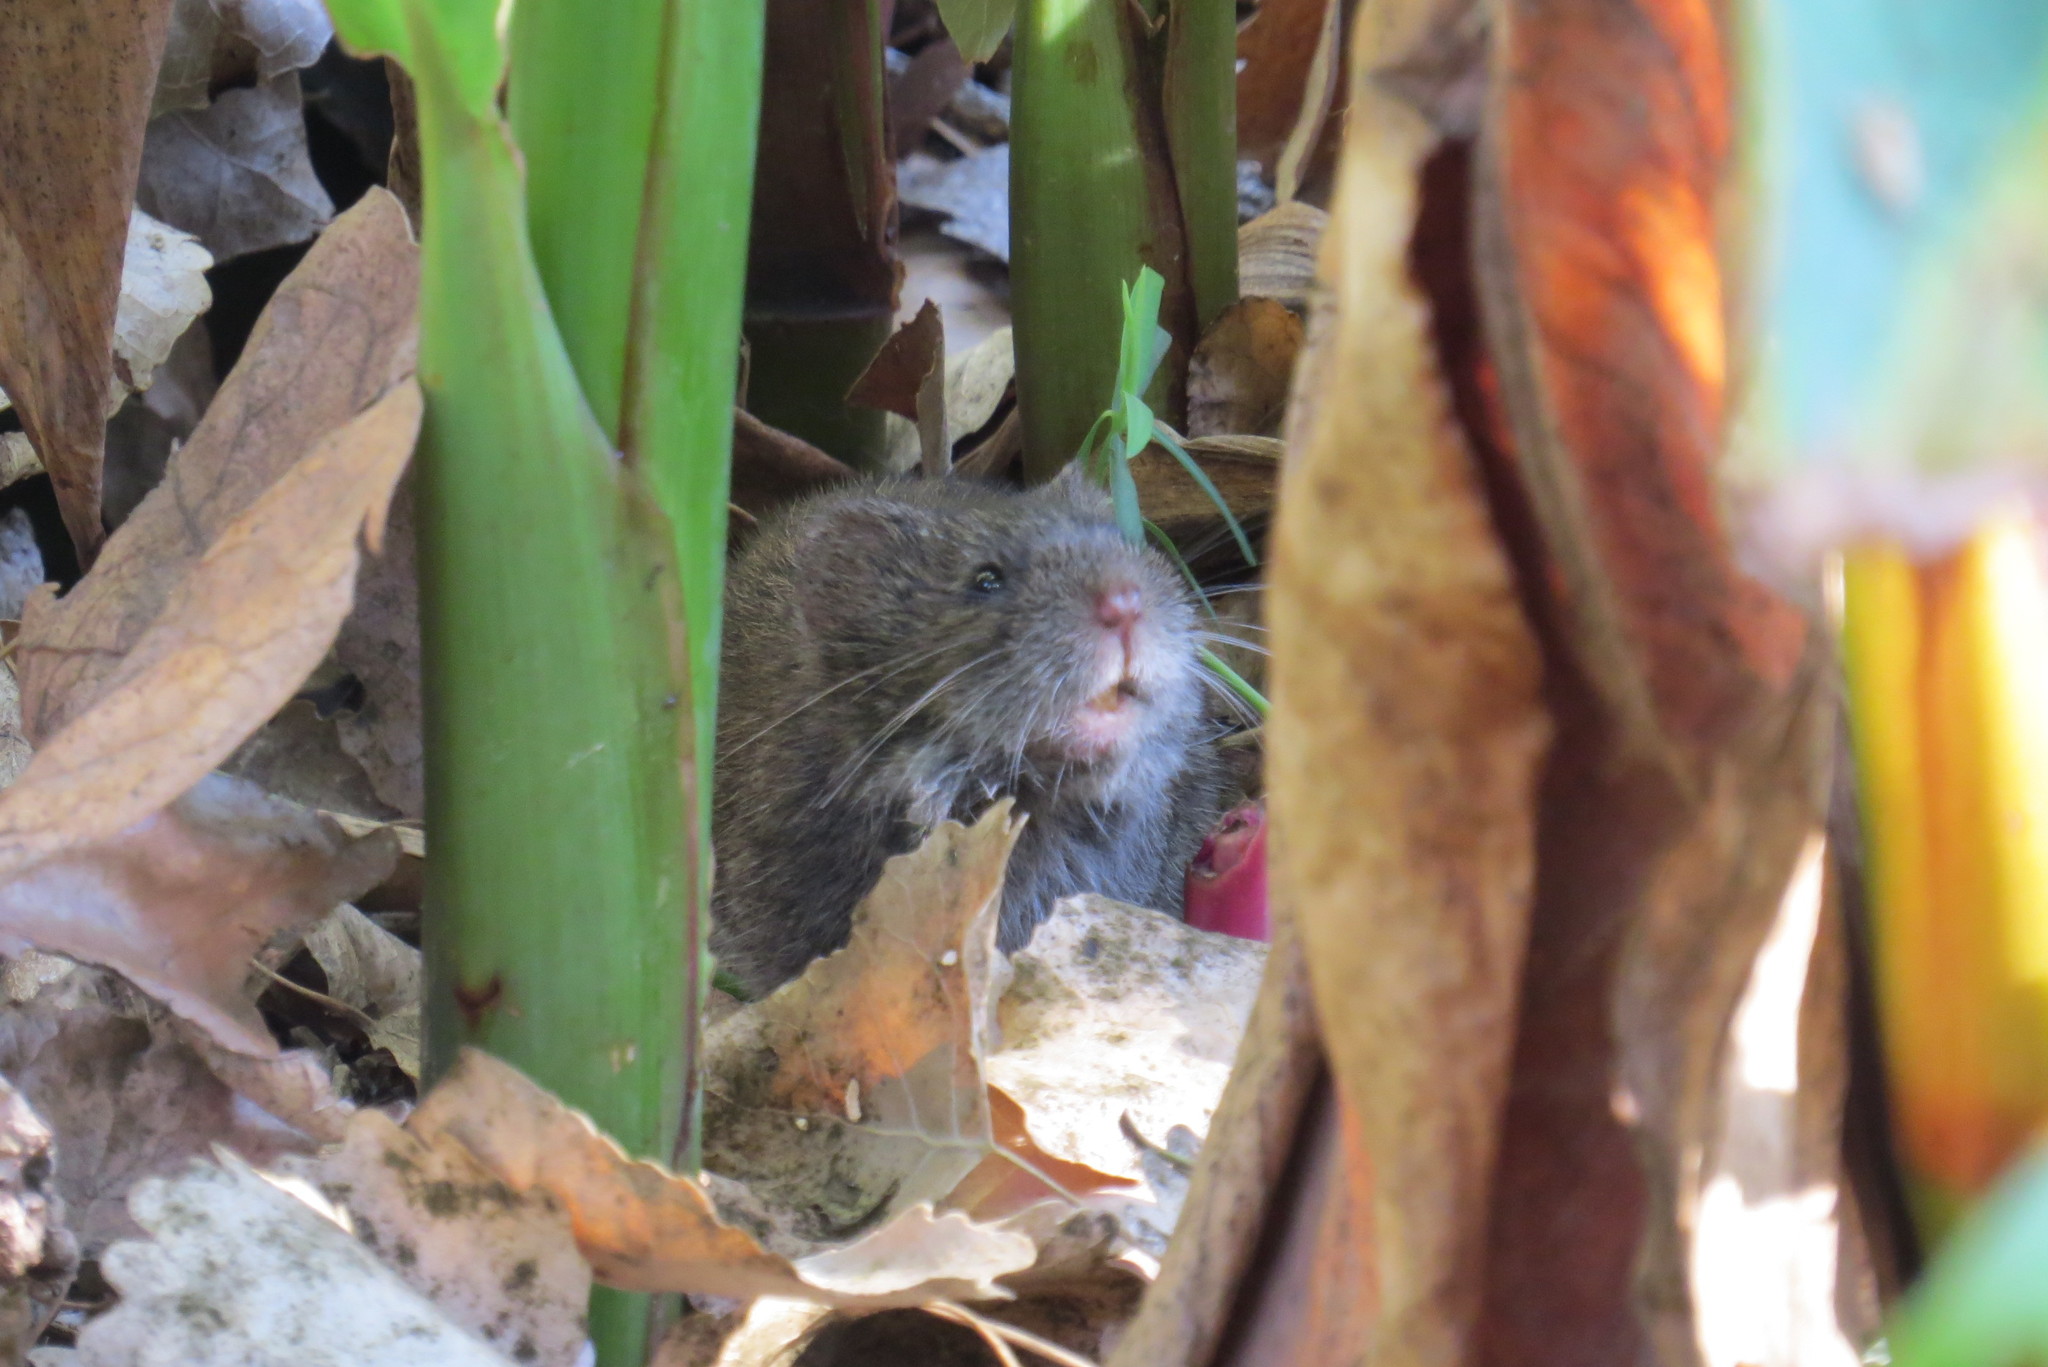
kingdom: Animalia
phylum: Chordata
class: Mammalia
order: Rodentia
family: Cricetidae
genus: Microtus
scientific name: Microtus californicus
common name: California vole
